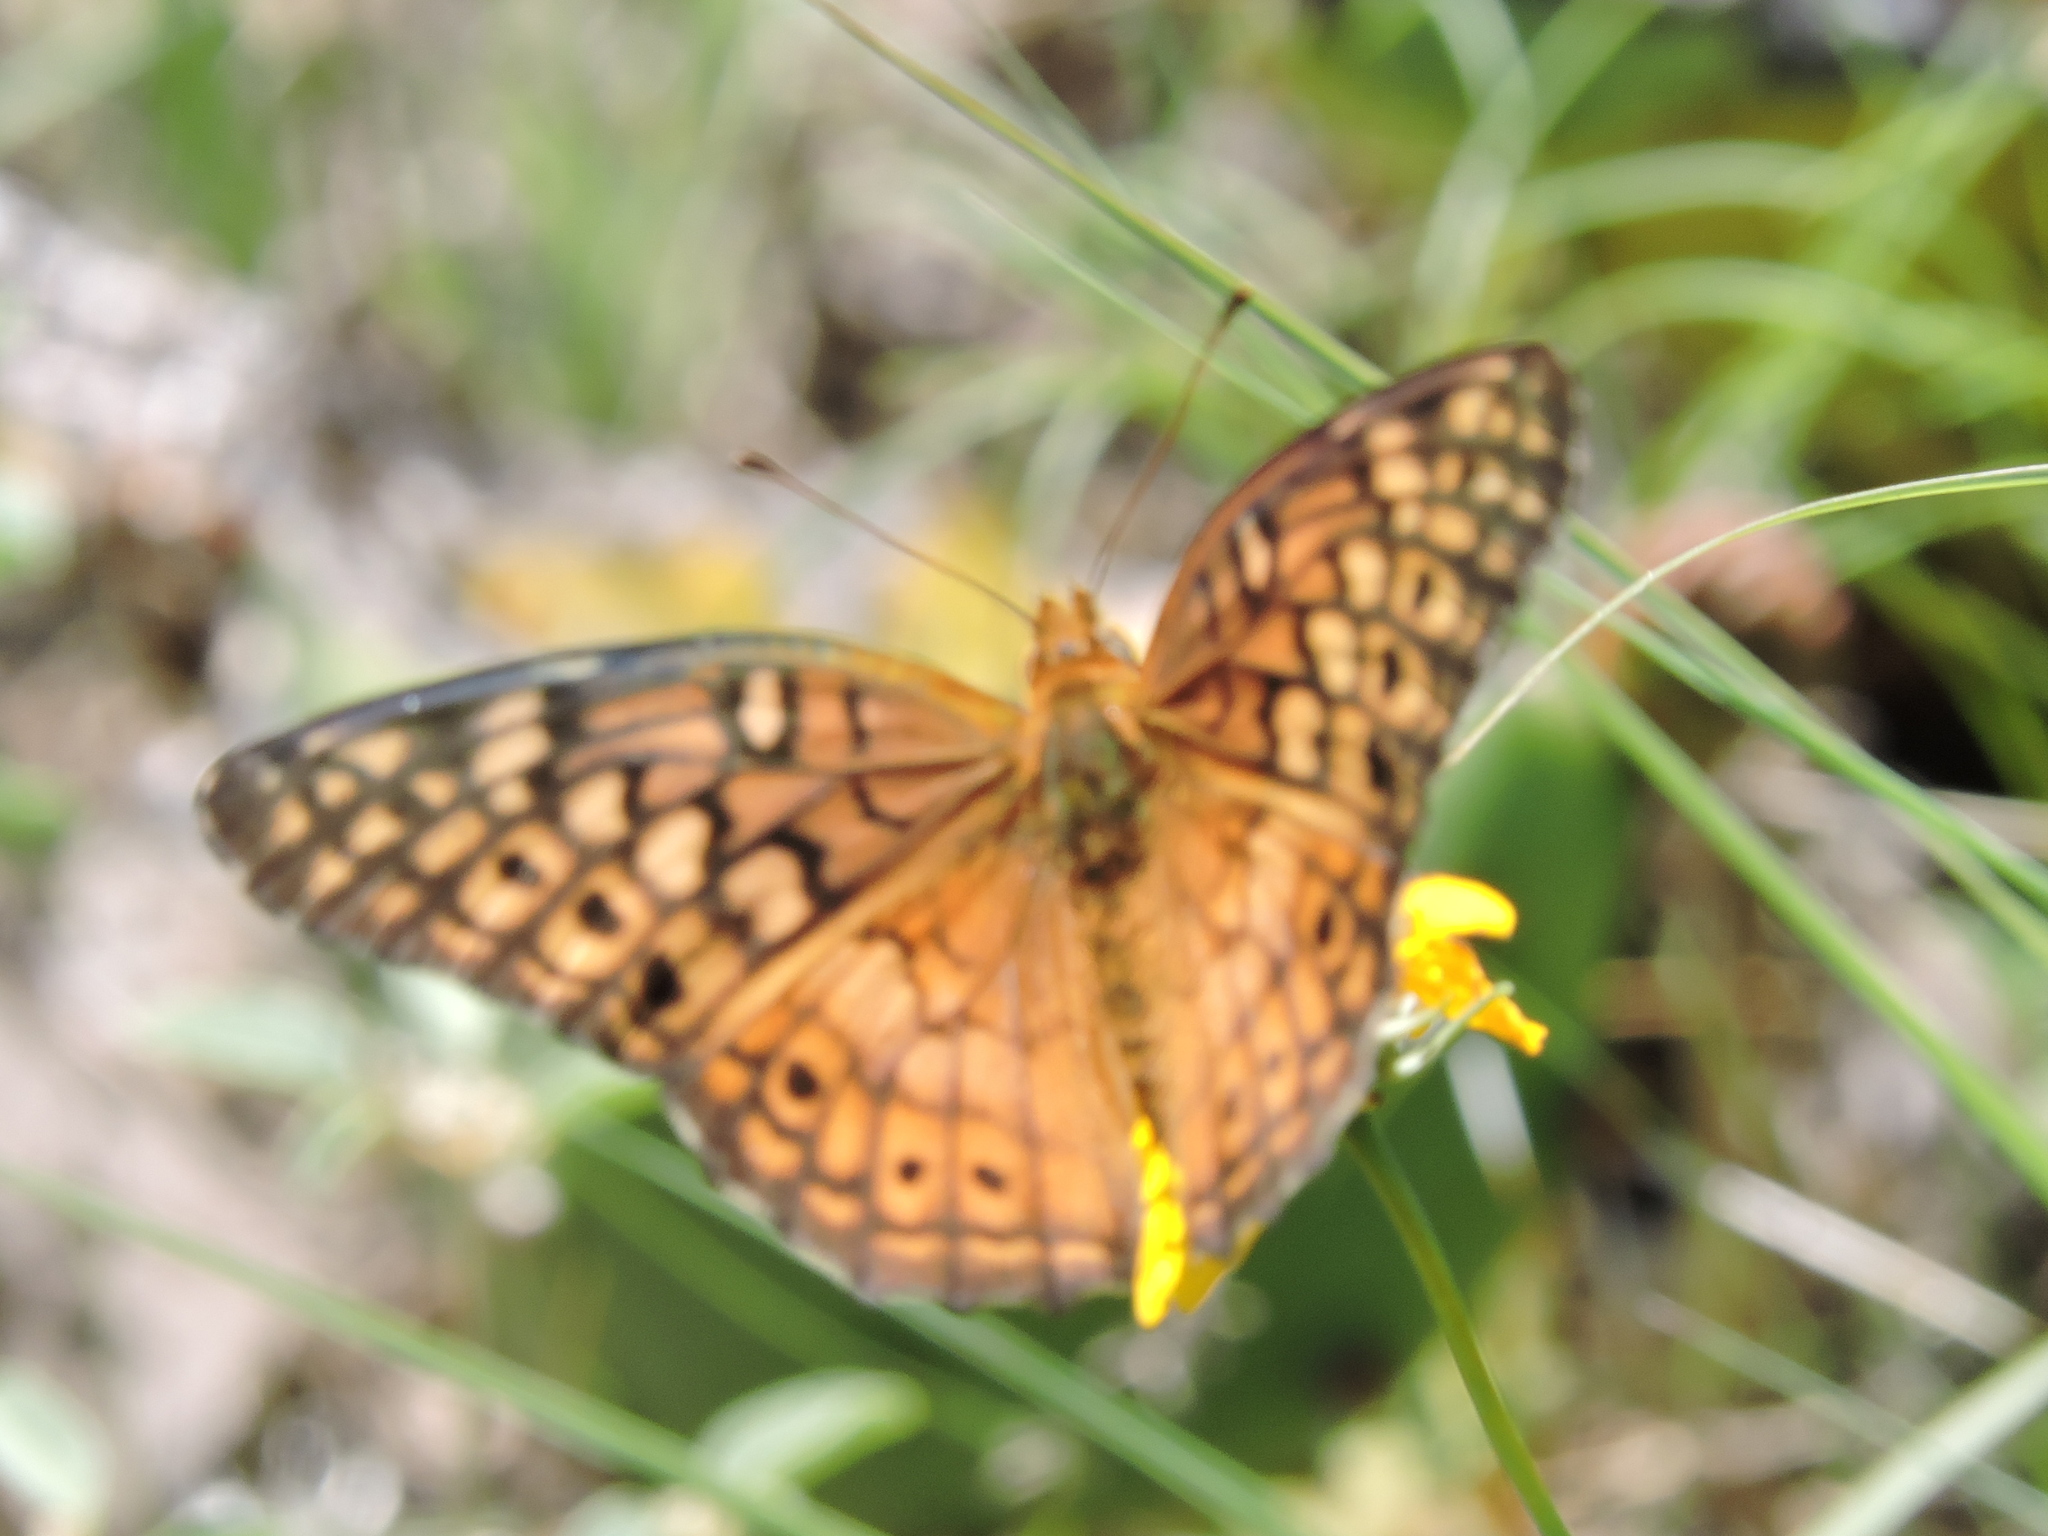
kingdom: Animalia
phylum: Arthropoda
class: Insecta
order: Lepidoptera
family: Nymphalidae
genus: Euptoieta
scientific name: Euptoieta claudia
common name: Variegated fritillary
